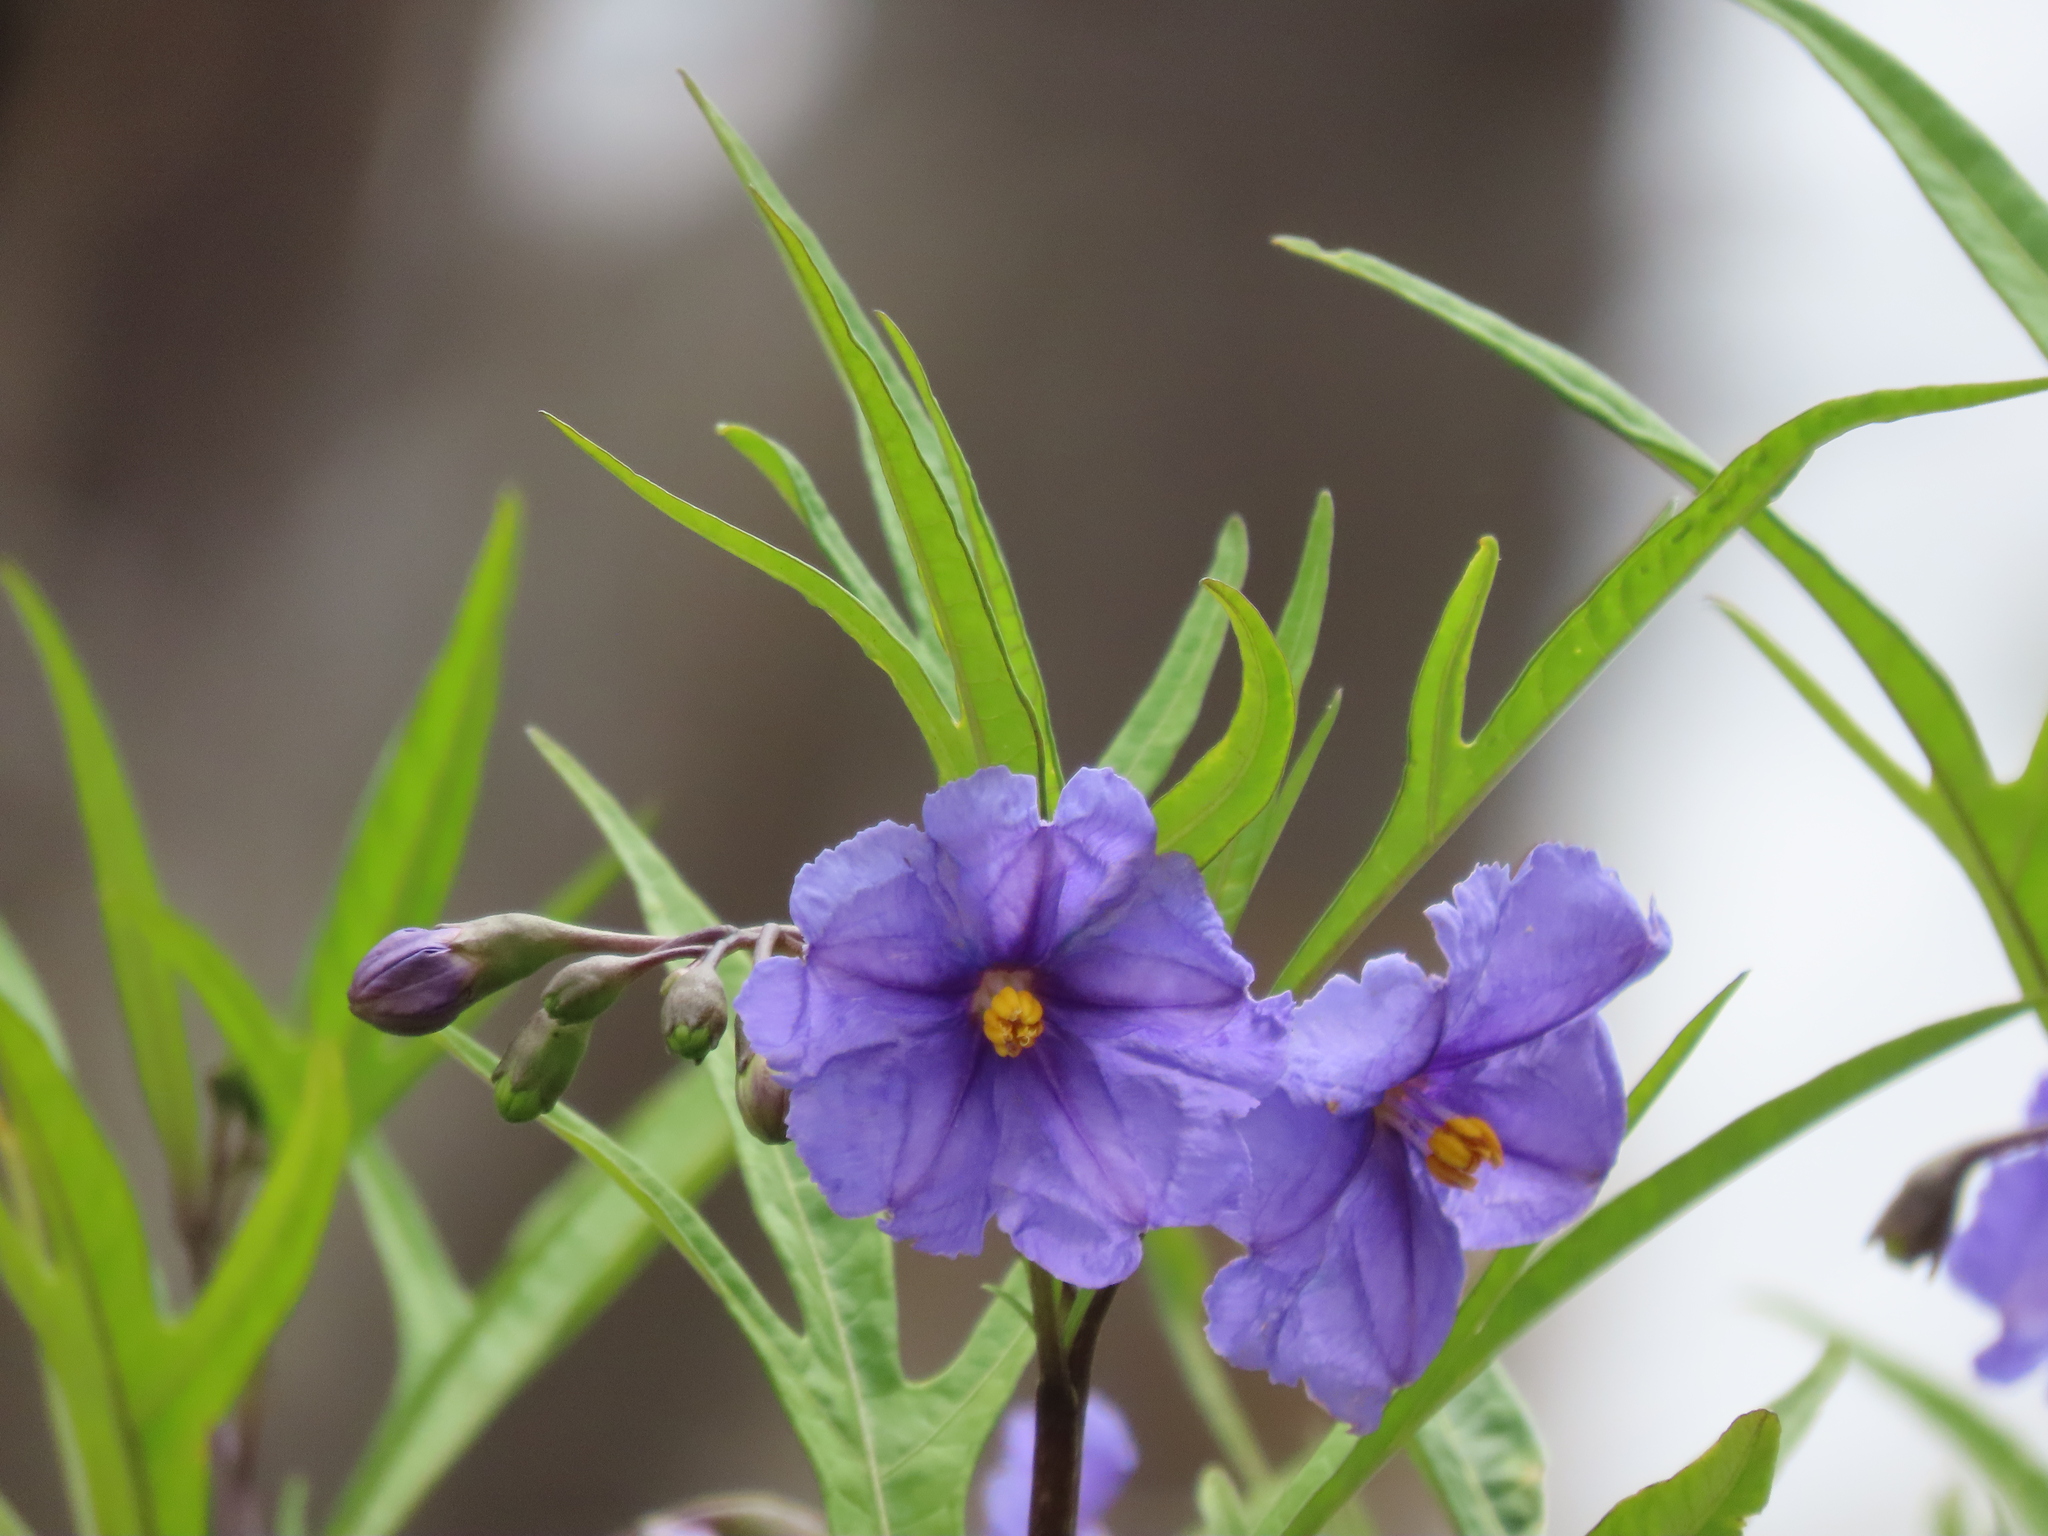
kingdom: Plantae
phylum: Tracheophyta
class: Magnoliopsida
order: Solanales
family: Solanaceae
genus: Solanum
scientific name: Solanum laciniatum
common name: Kangaroo-apple
